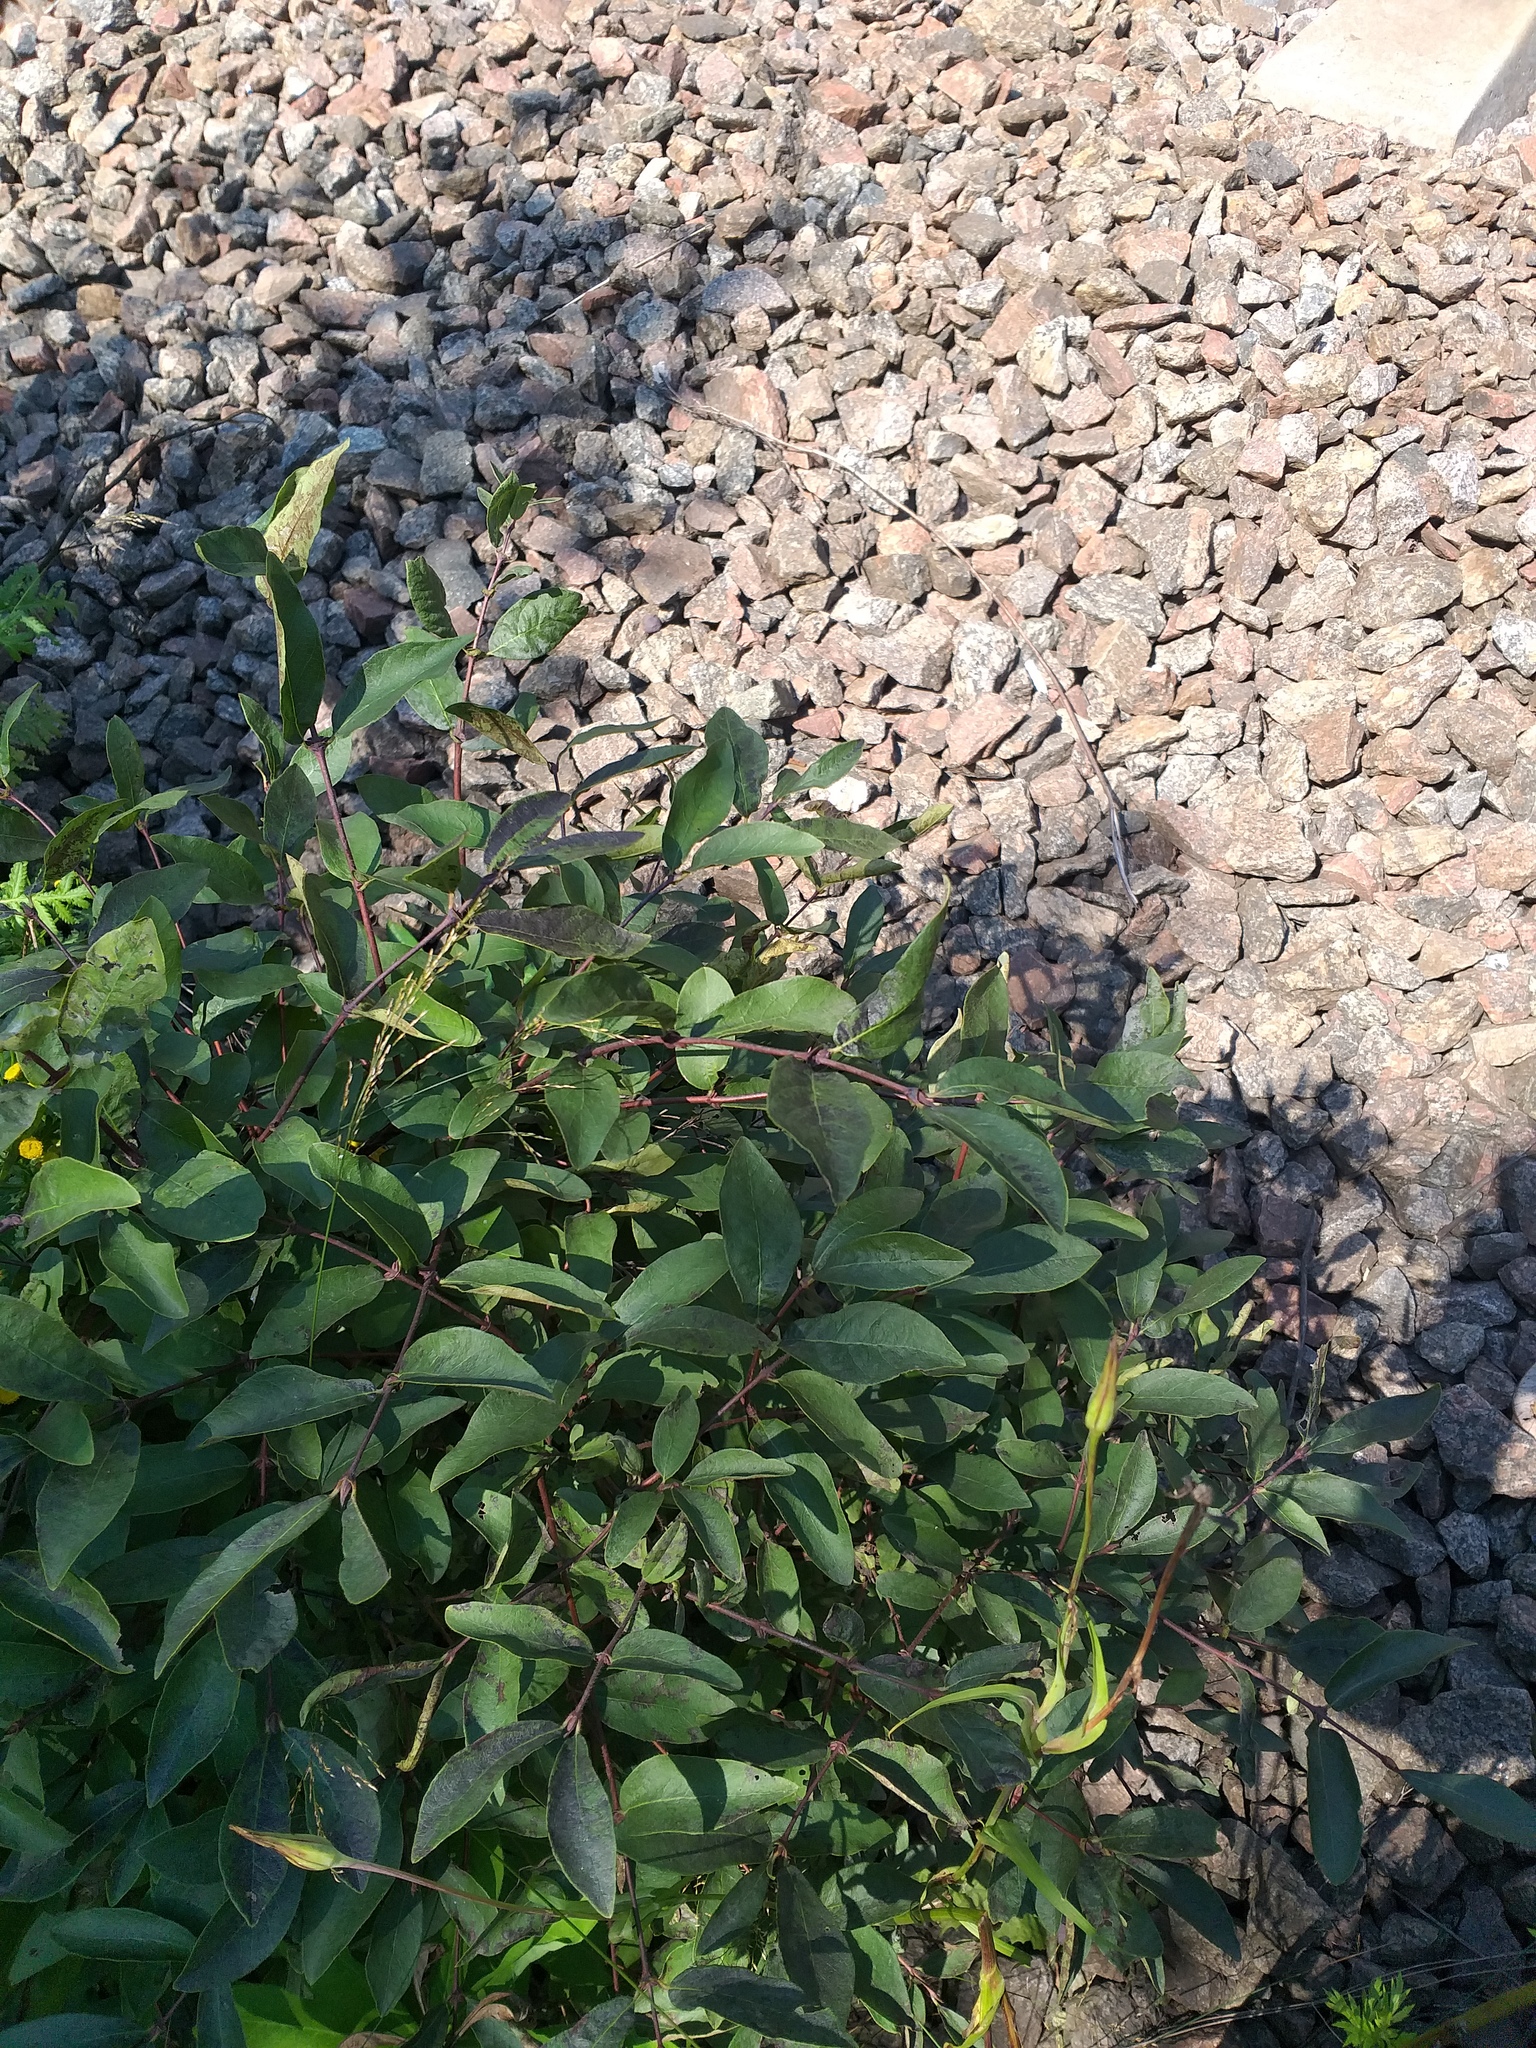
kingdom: Plantae
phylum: Tracheophyta
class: Magnoliopsida
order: Dipsacales
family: Caprifoliaceae
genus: Lonicera
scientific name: Lonicera caerulea
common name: Blue honeysuckle
